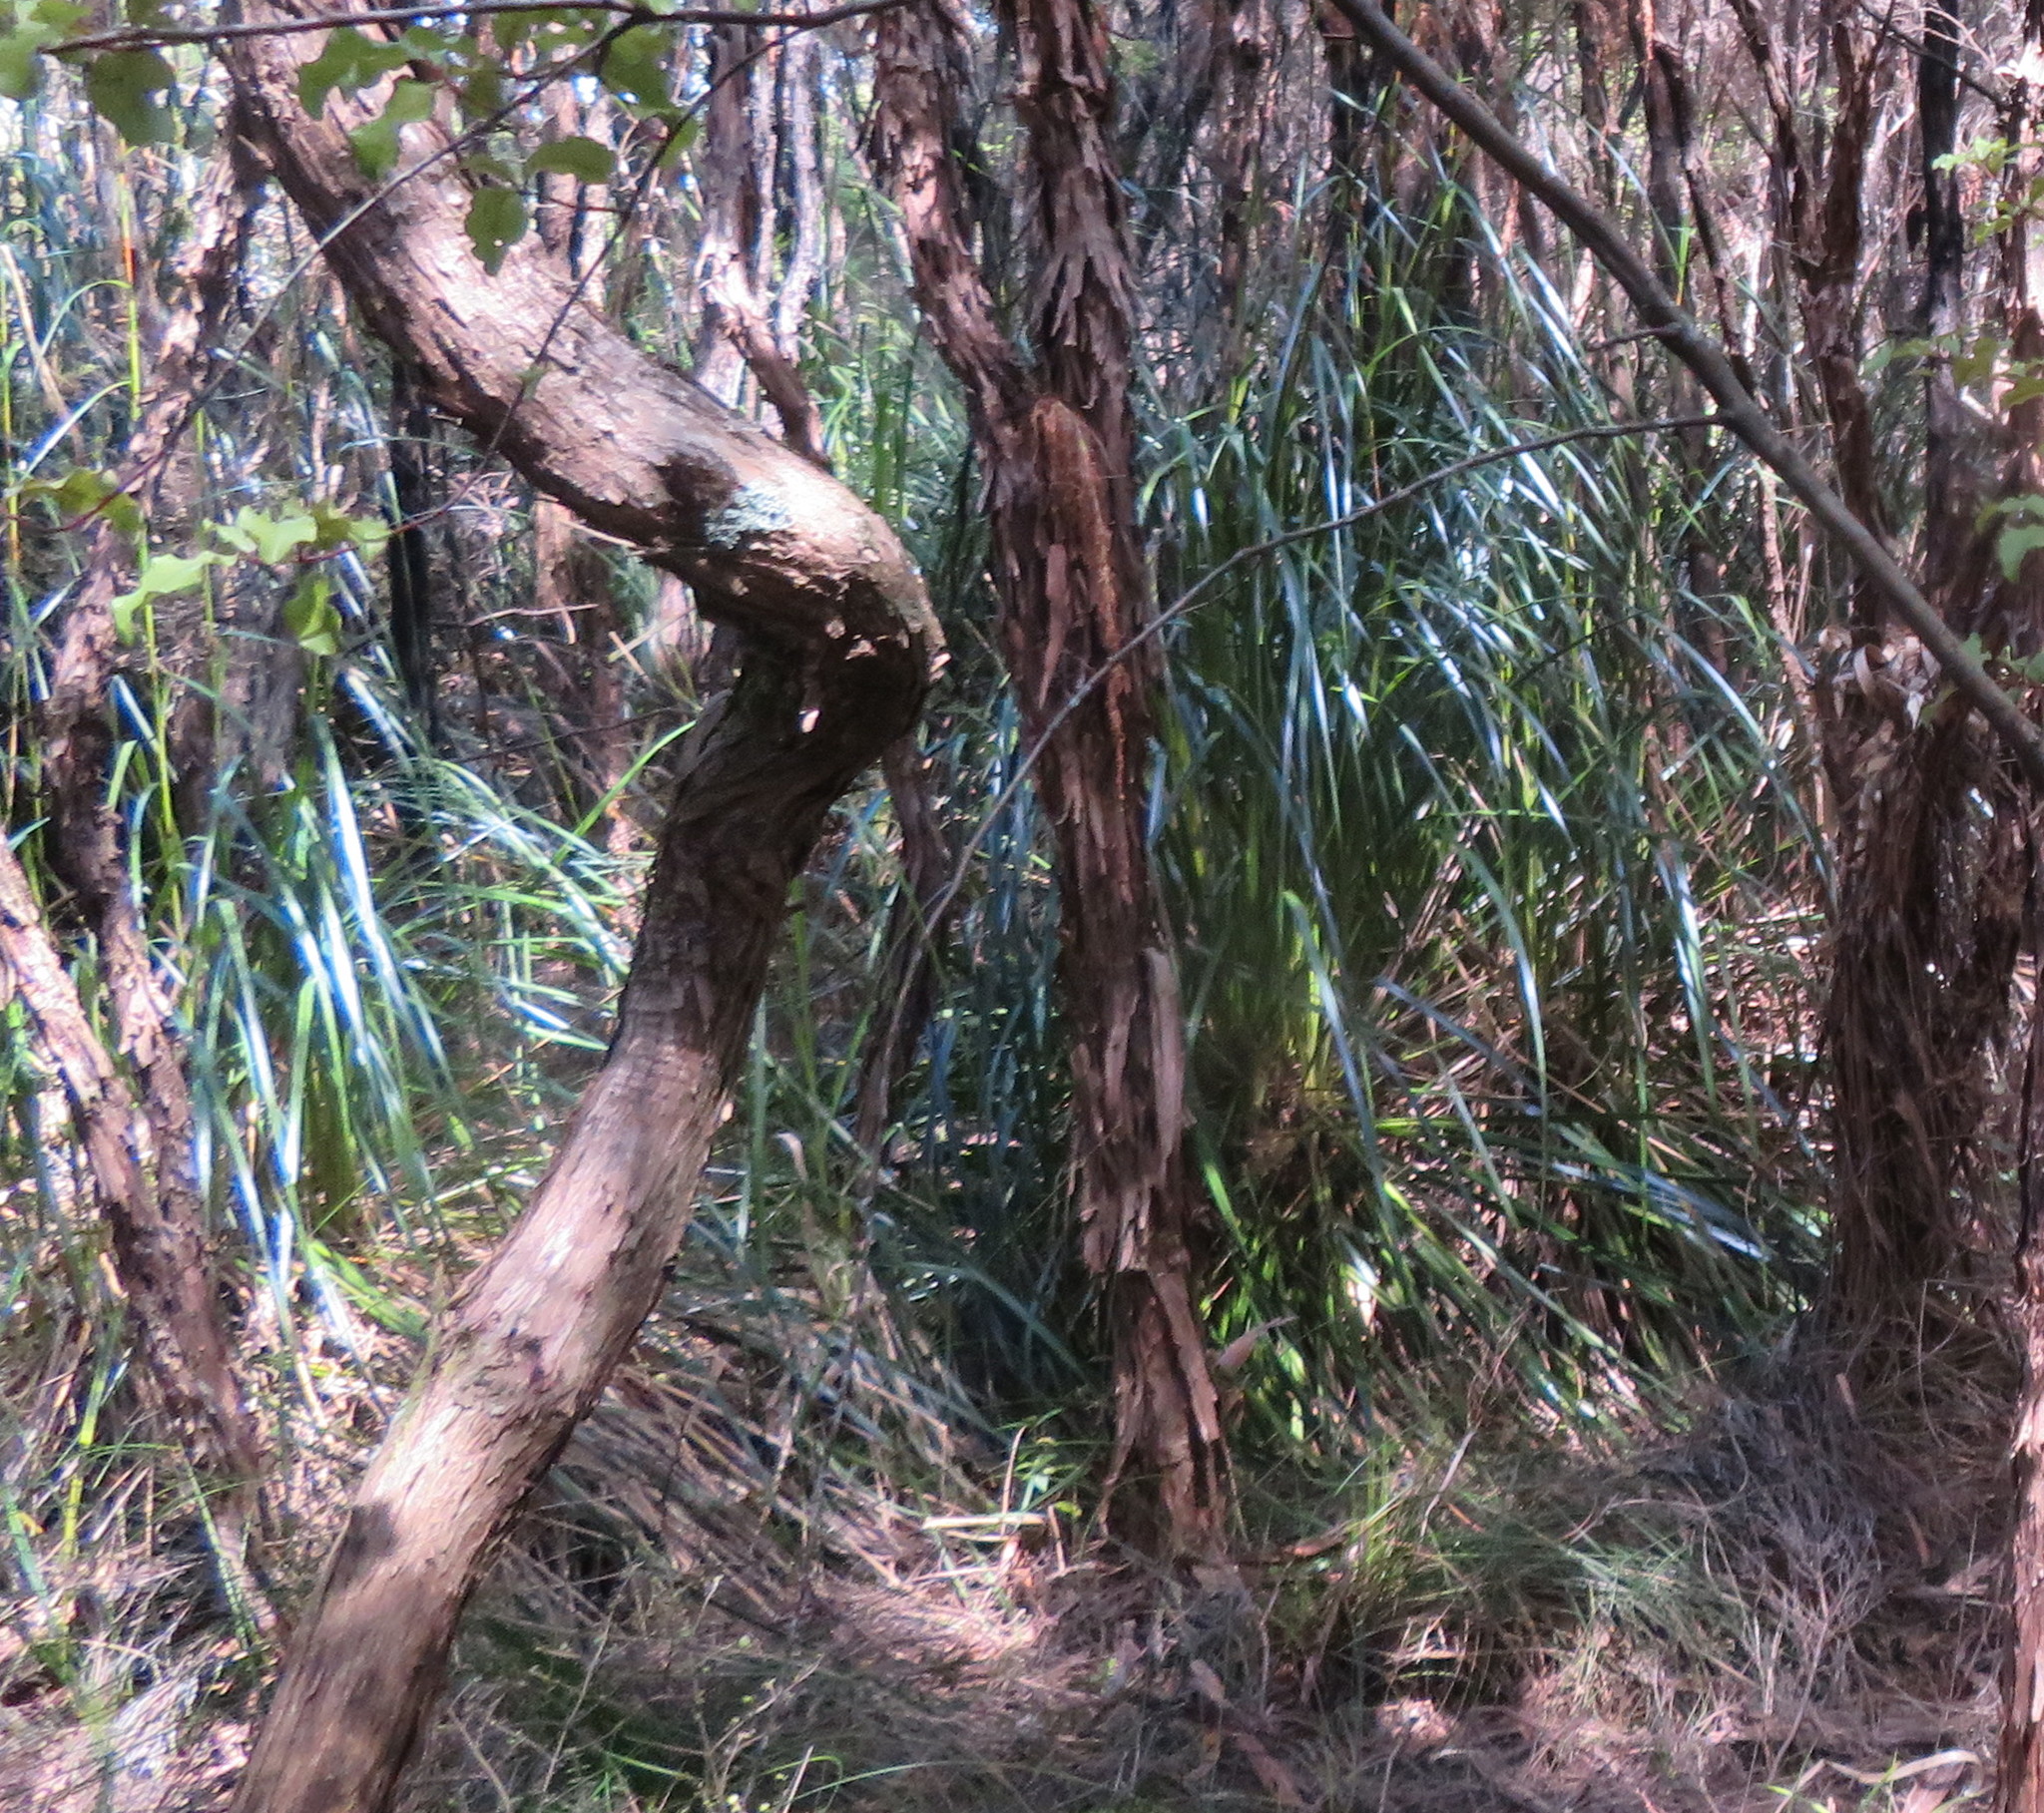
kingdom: Plantae
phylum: Tracheophyta
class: Magnoliopsida
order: Myrtales
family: Myrtaceae
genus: Leptospermum
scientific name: Leptospermum scoparium
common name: Broom tea-tree
